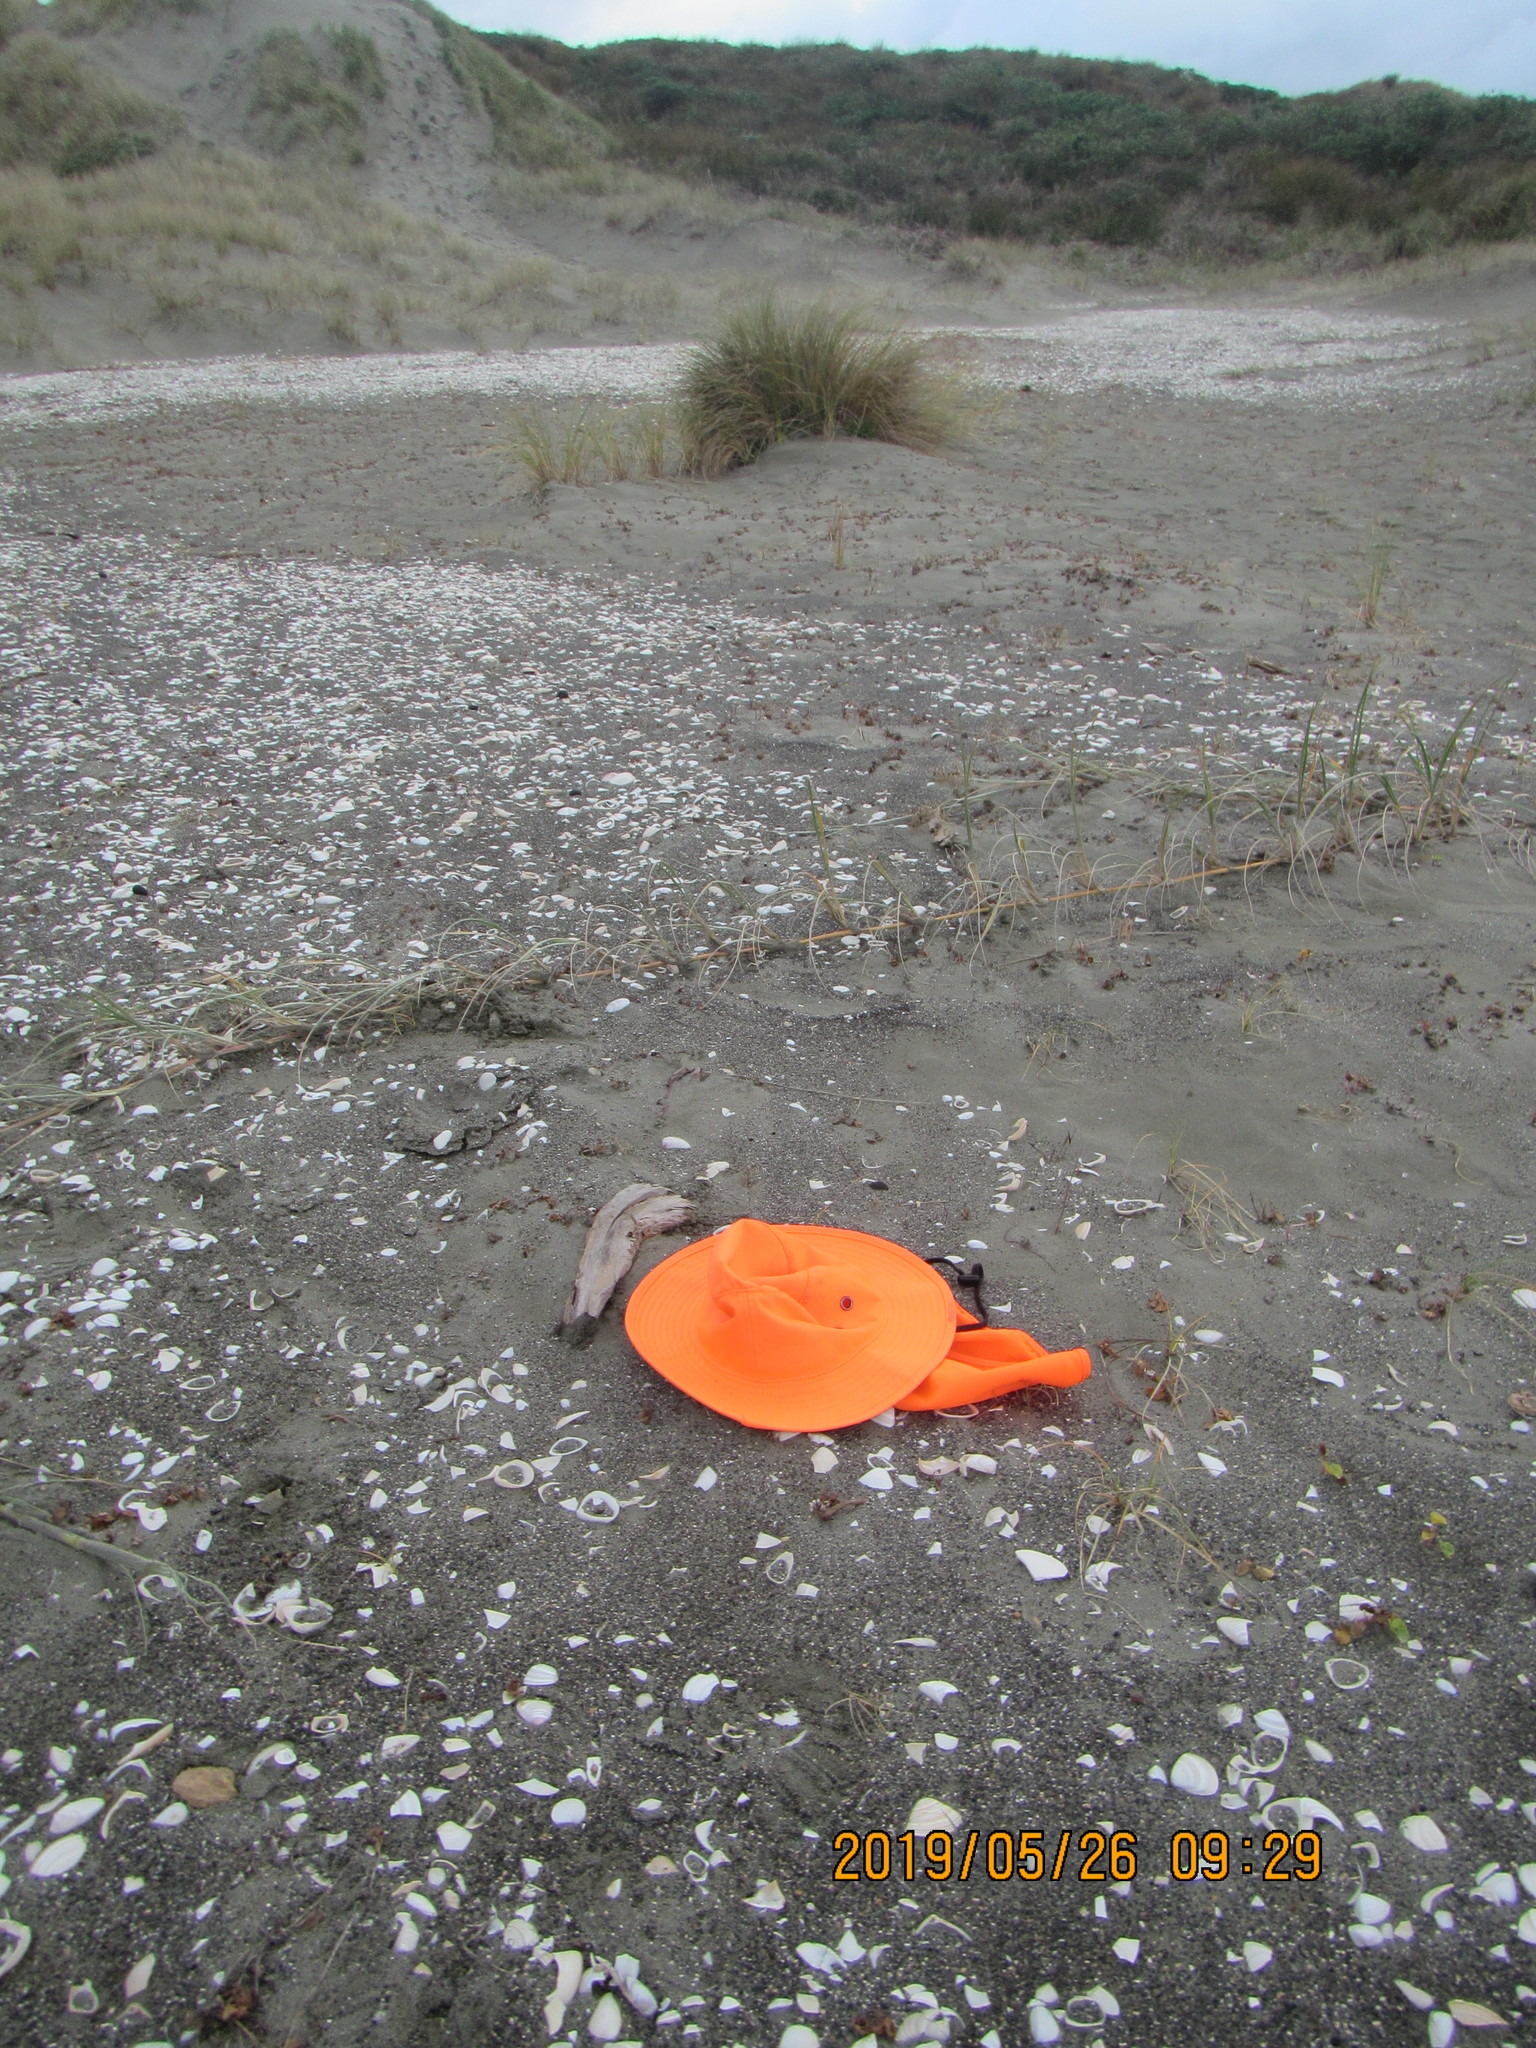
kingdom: Animalia
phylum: Arthropoda
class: Arachnida
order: Araneae
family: Lycosidae
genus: Anoteropsis
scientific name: Anoteropsis litoralis
